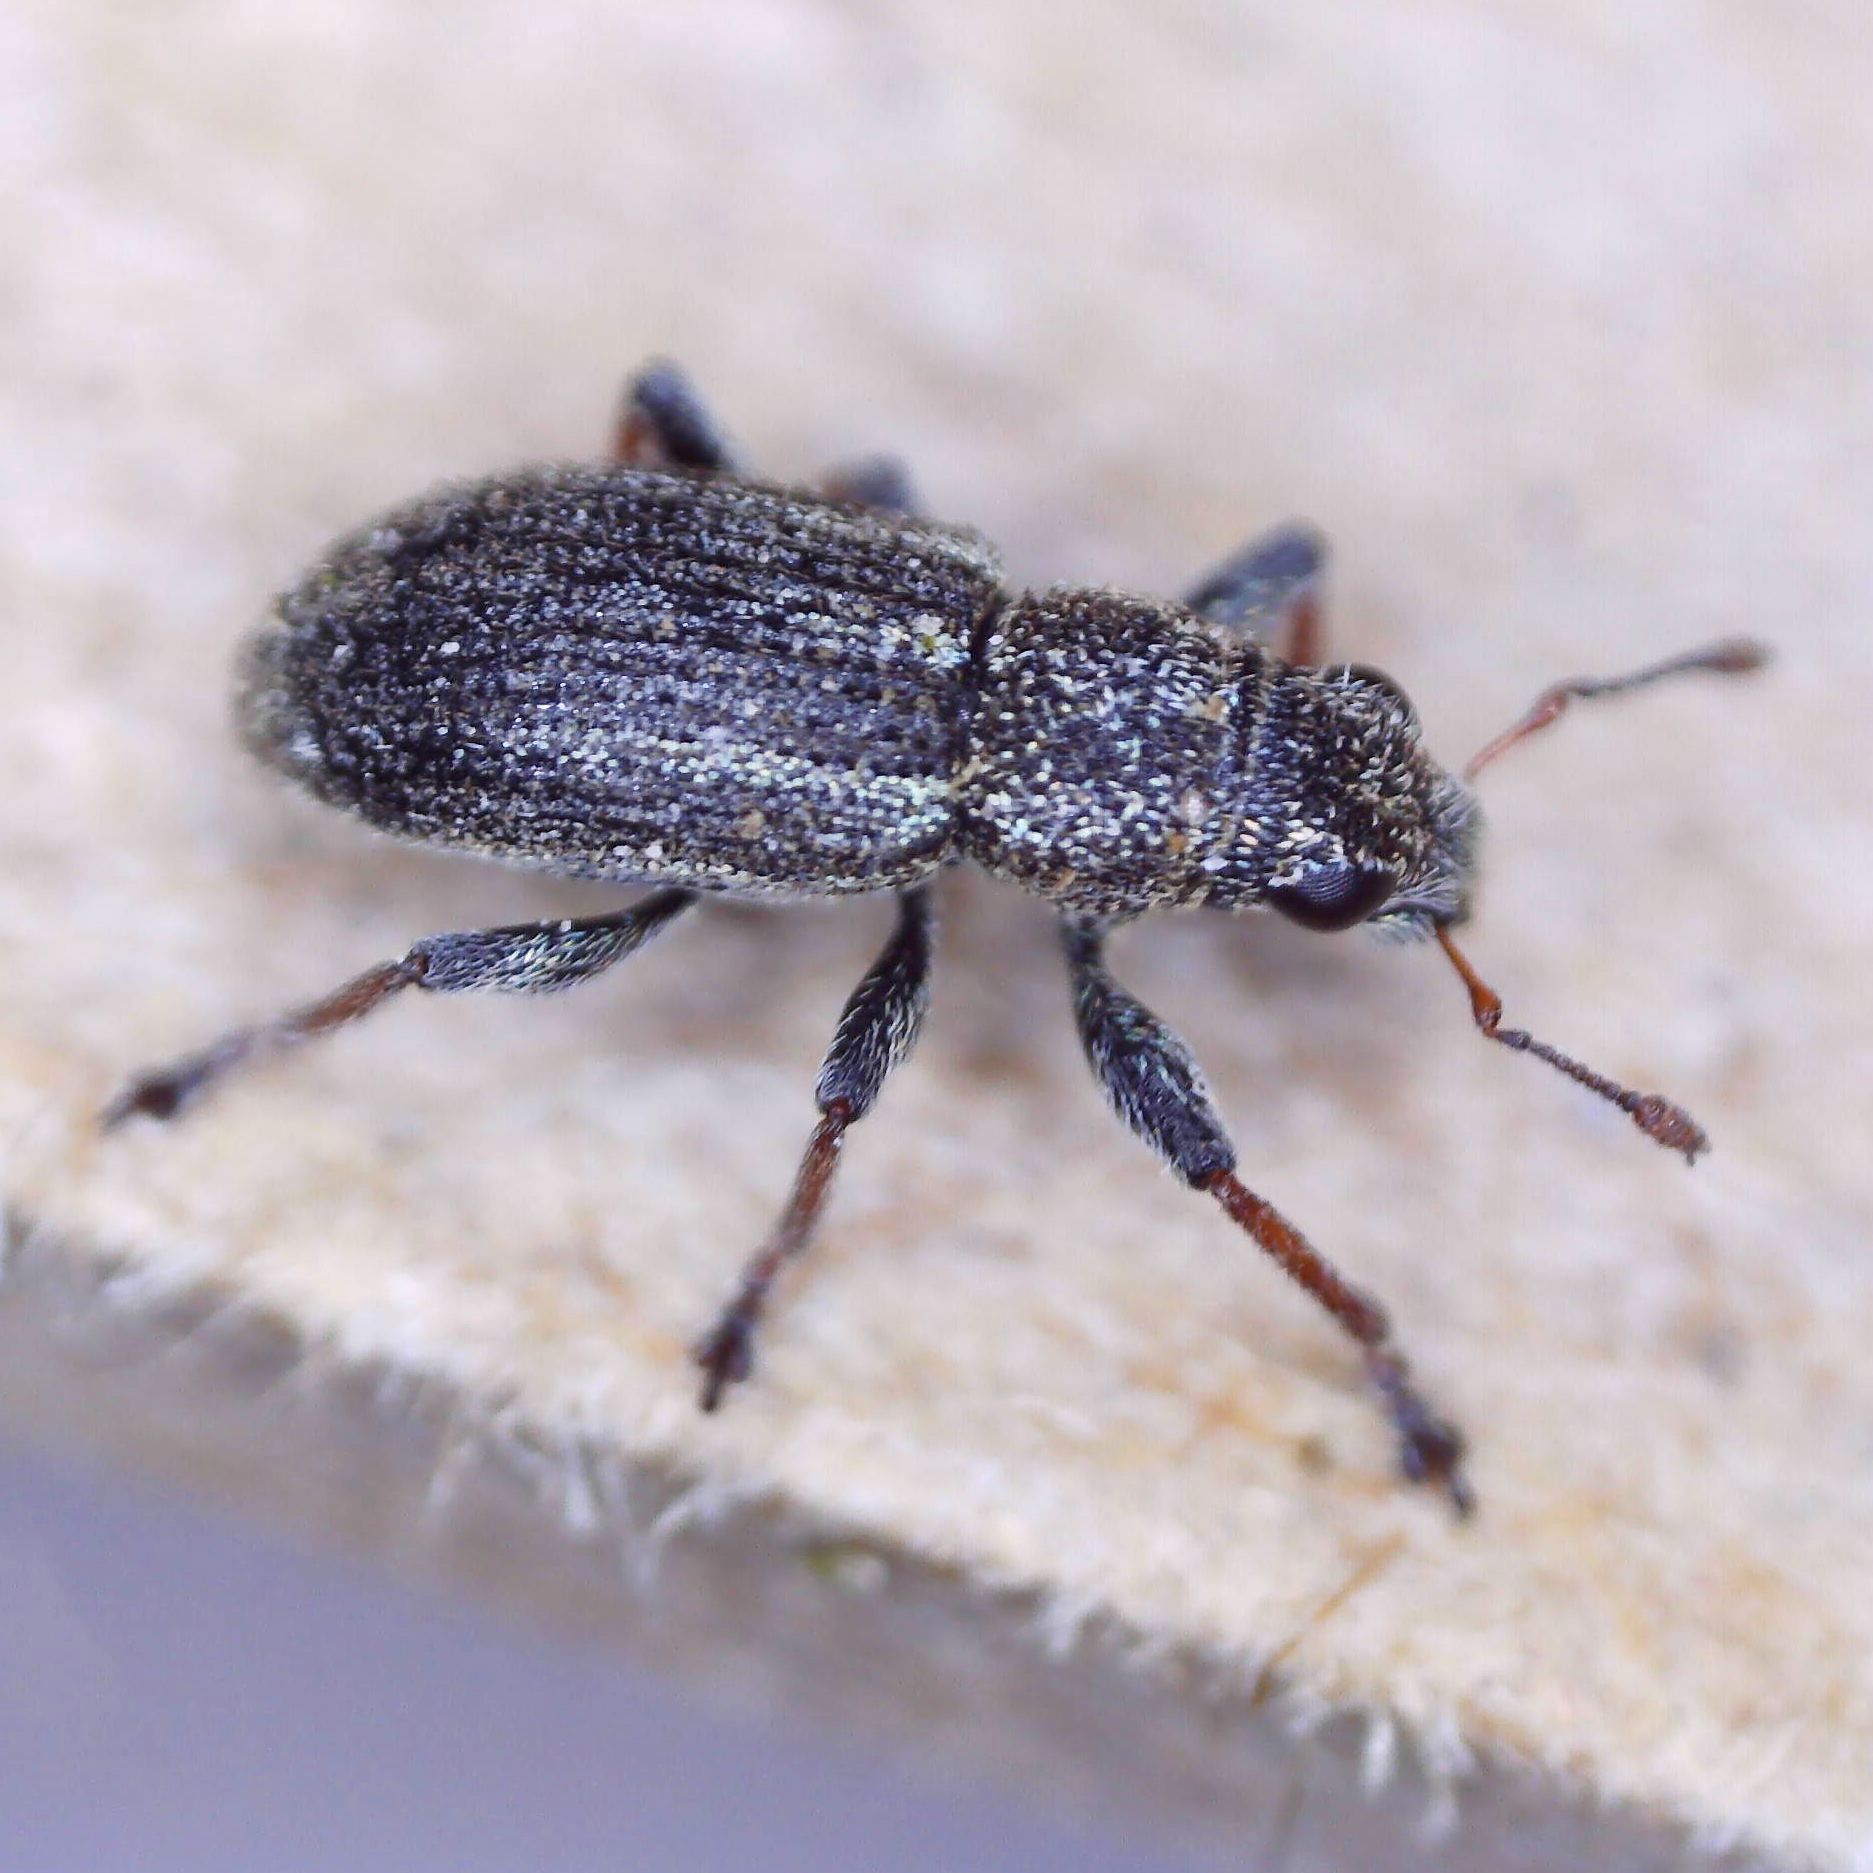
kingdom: Animalia
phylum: Arthropoda
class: Insecta
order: Coleoptera
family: Curculionidae
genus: Sitona
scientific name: Sitona striatellus
